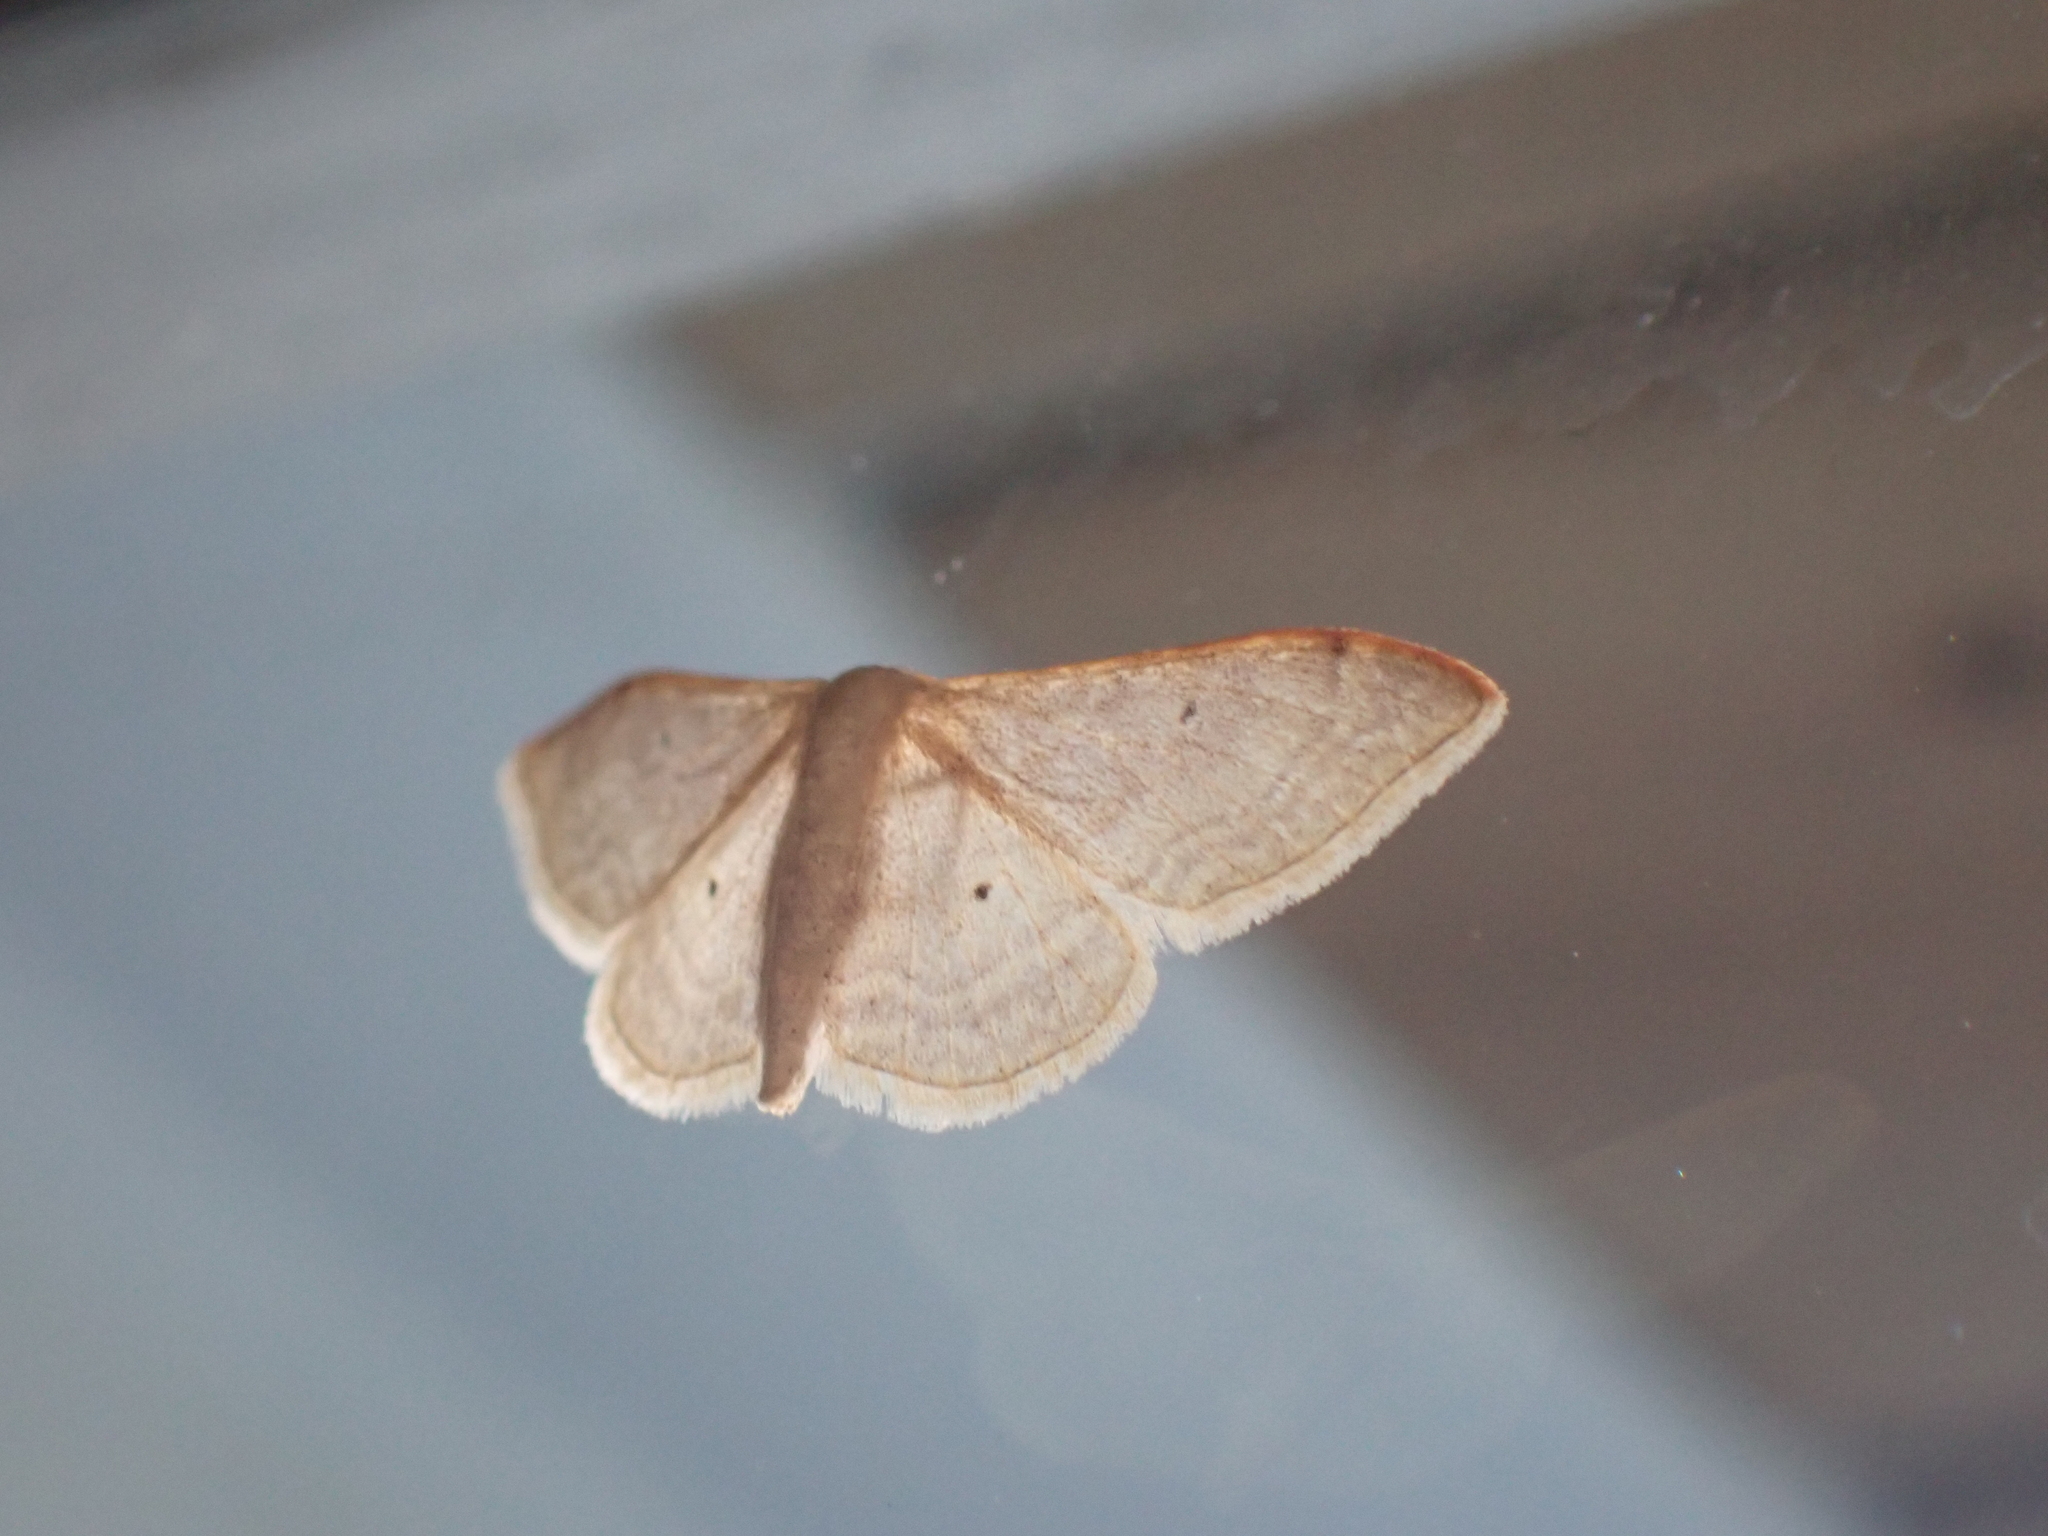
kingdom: Animalia
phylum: Arthropoda
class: Insecta
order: Lepidoptera
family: Geometridae
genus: Idaea
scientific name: Idaea degeneraria
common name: Portland ribbon wave
